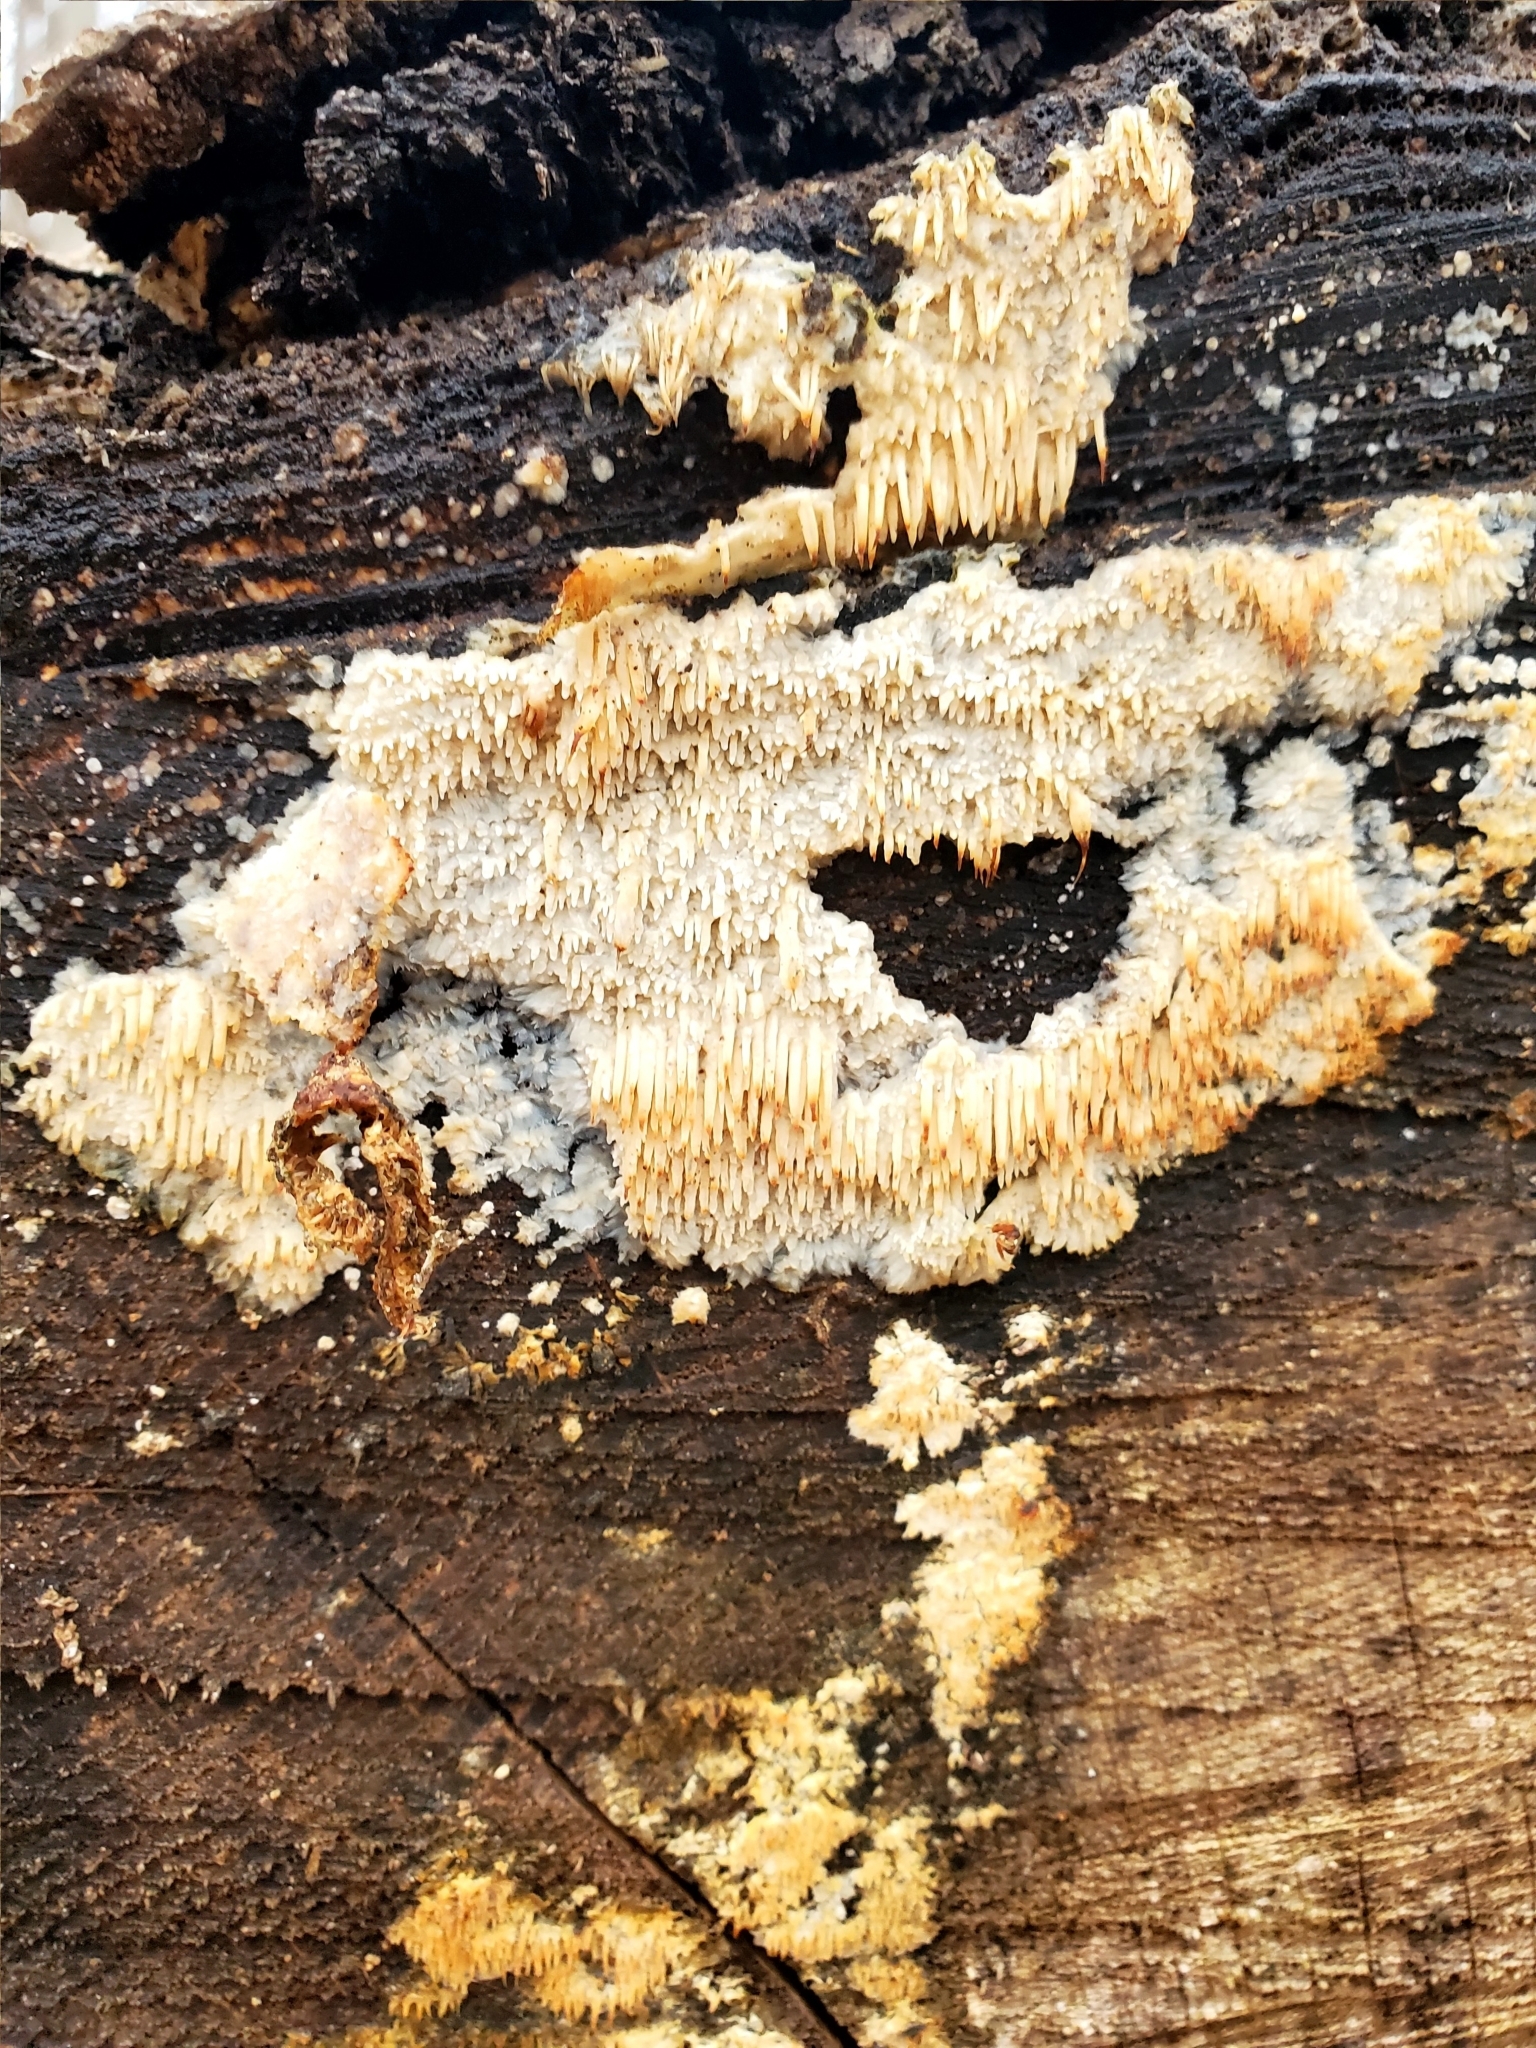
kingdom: Fungi
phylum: Basidiomycota
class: Agaricomycetes
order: Agaricales
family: Radulomycetaceae
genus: Radulomyces
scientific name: Radulomyces copelandii
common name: Asian beauty
